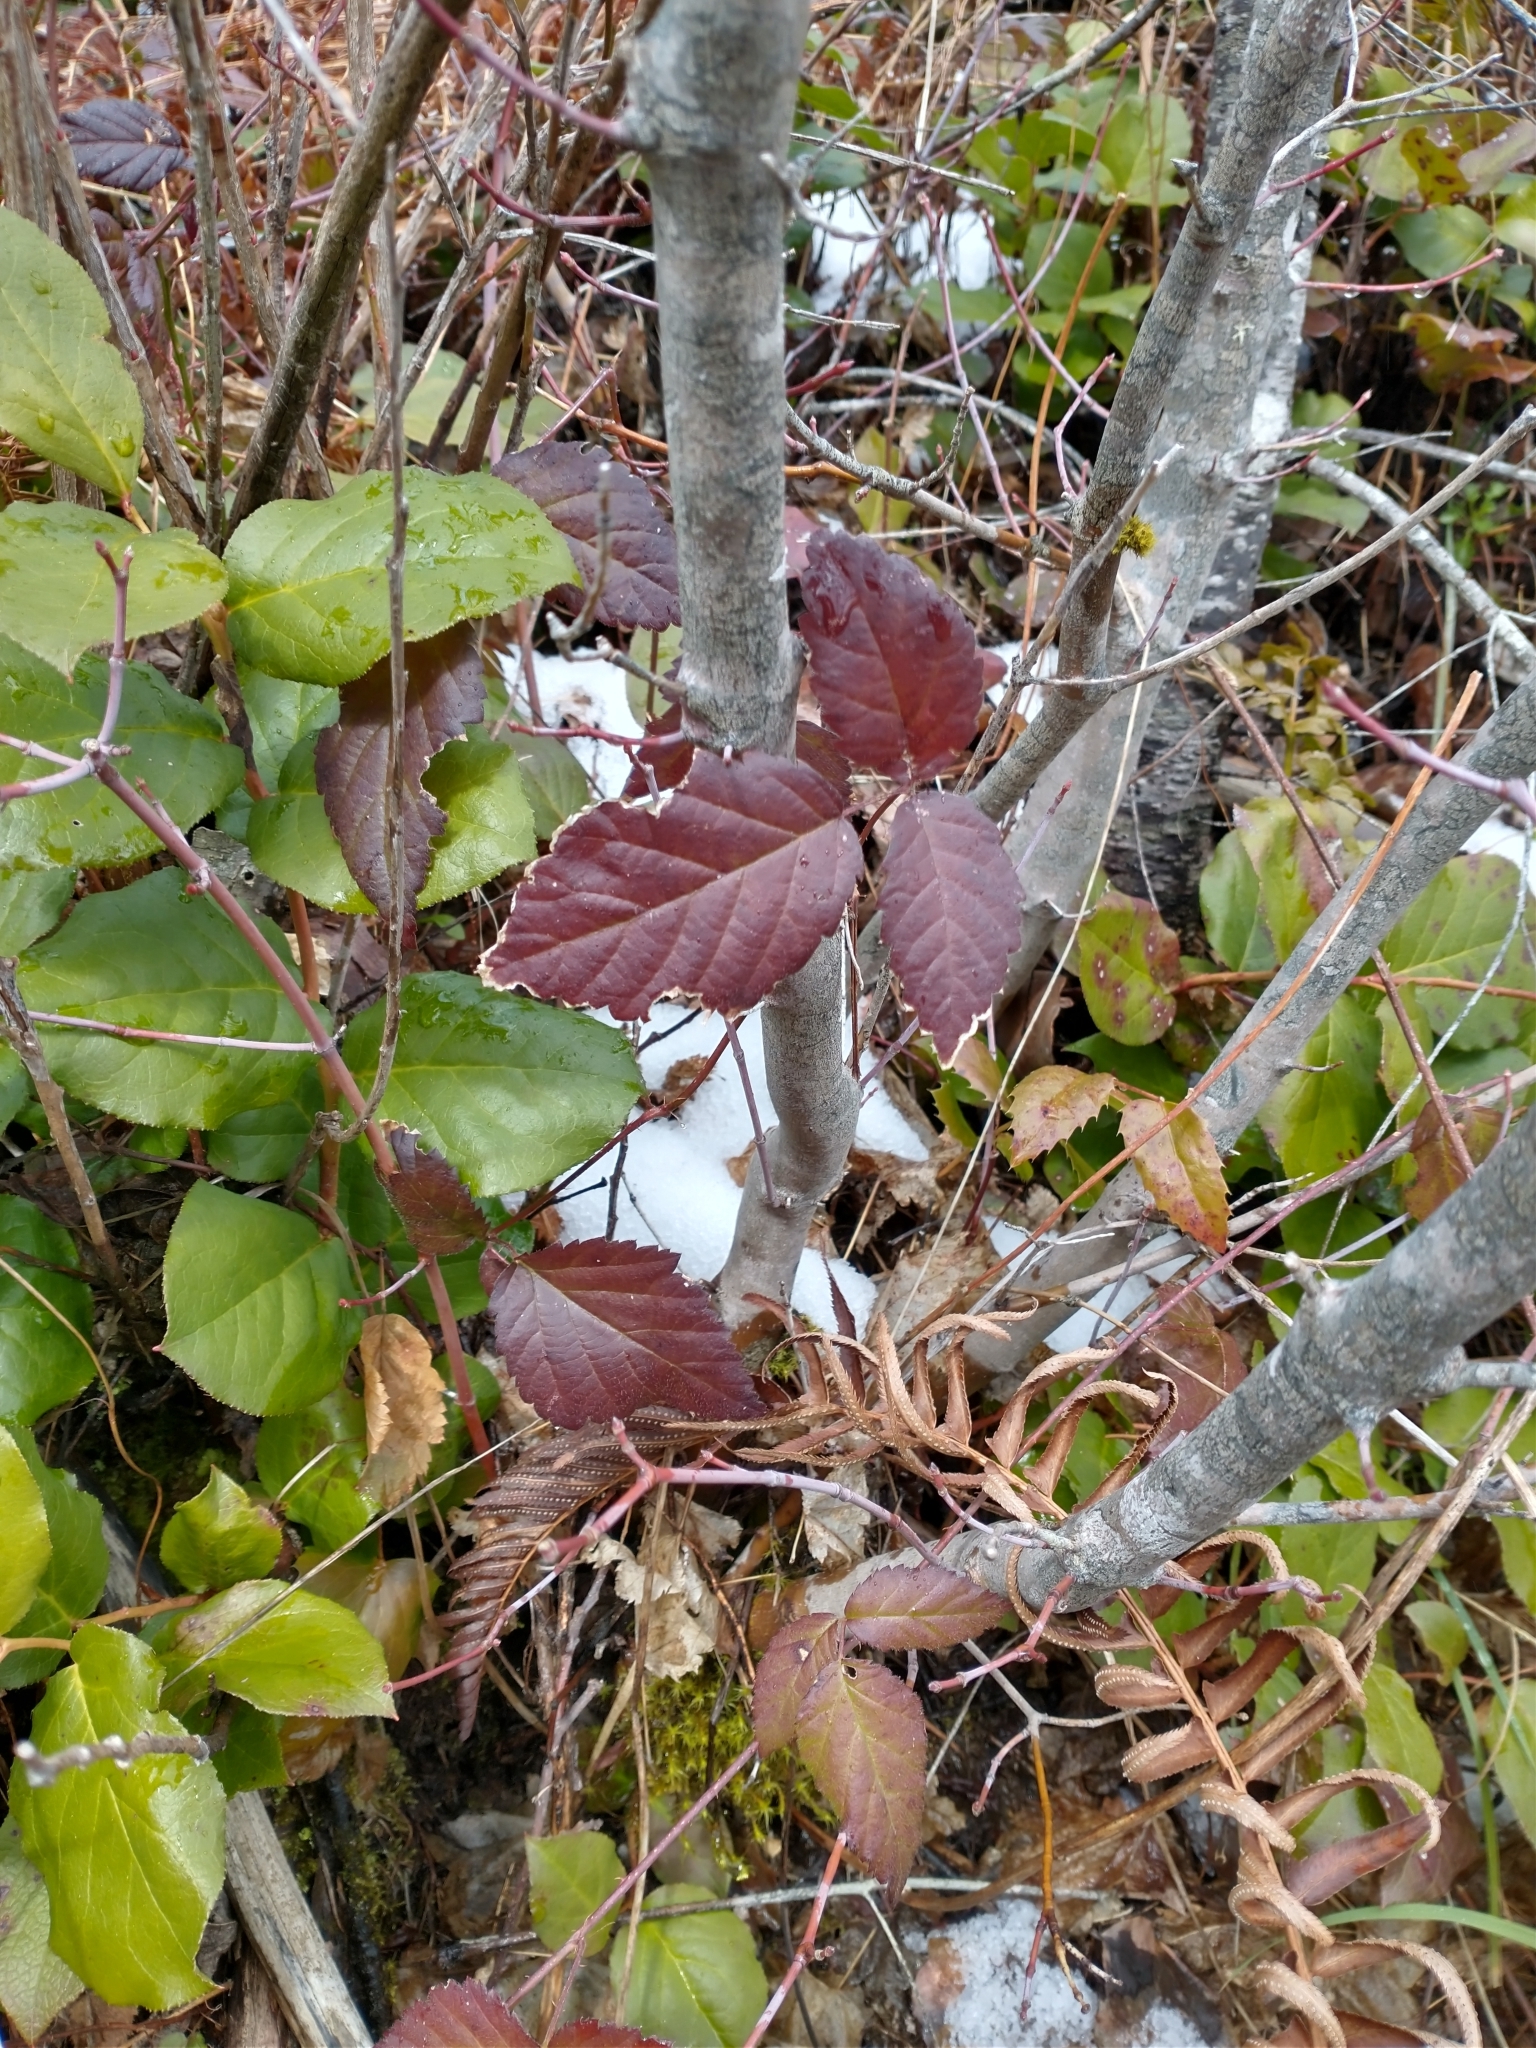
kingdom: Plantae
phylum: Tracheophyta
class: Magnoliopsida
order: Rosales
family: Rosaceae
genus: Rubus
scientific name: Rubus ursinus
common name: Pacific blackberry
